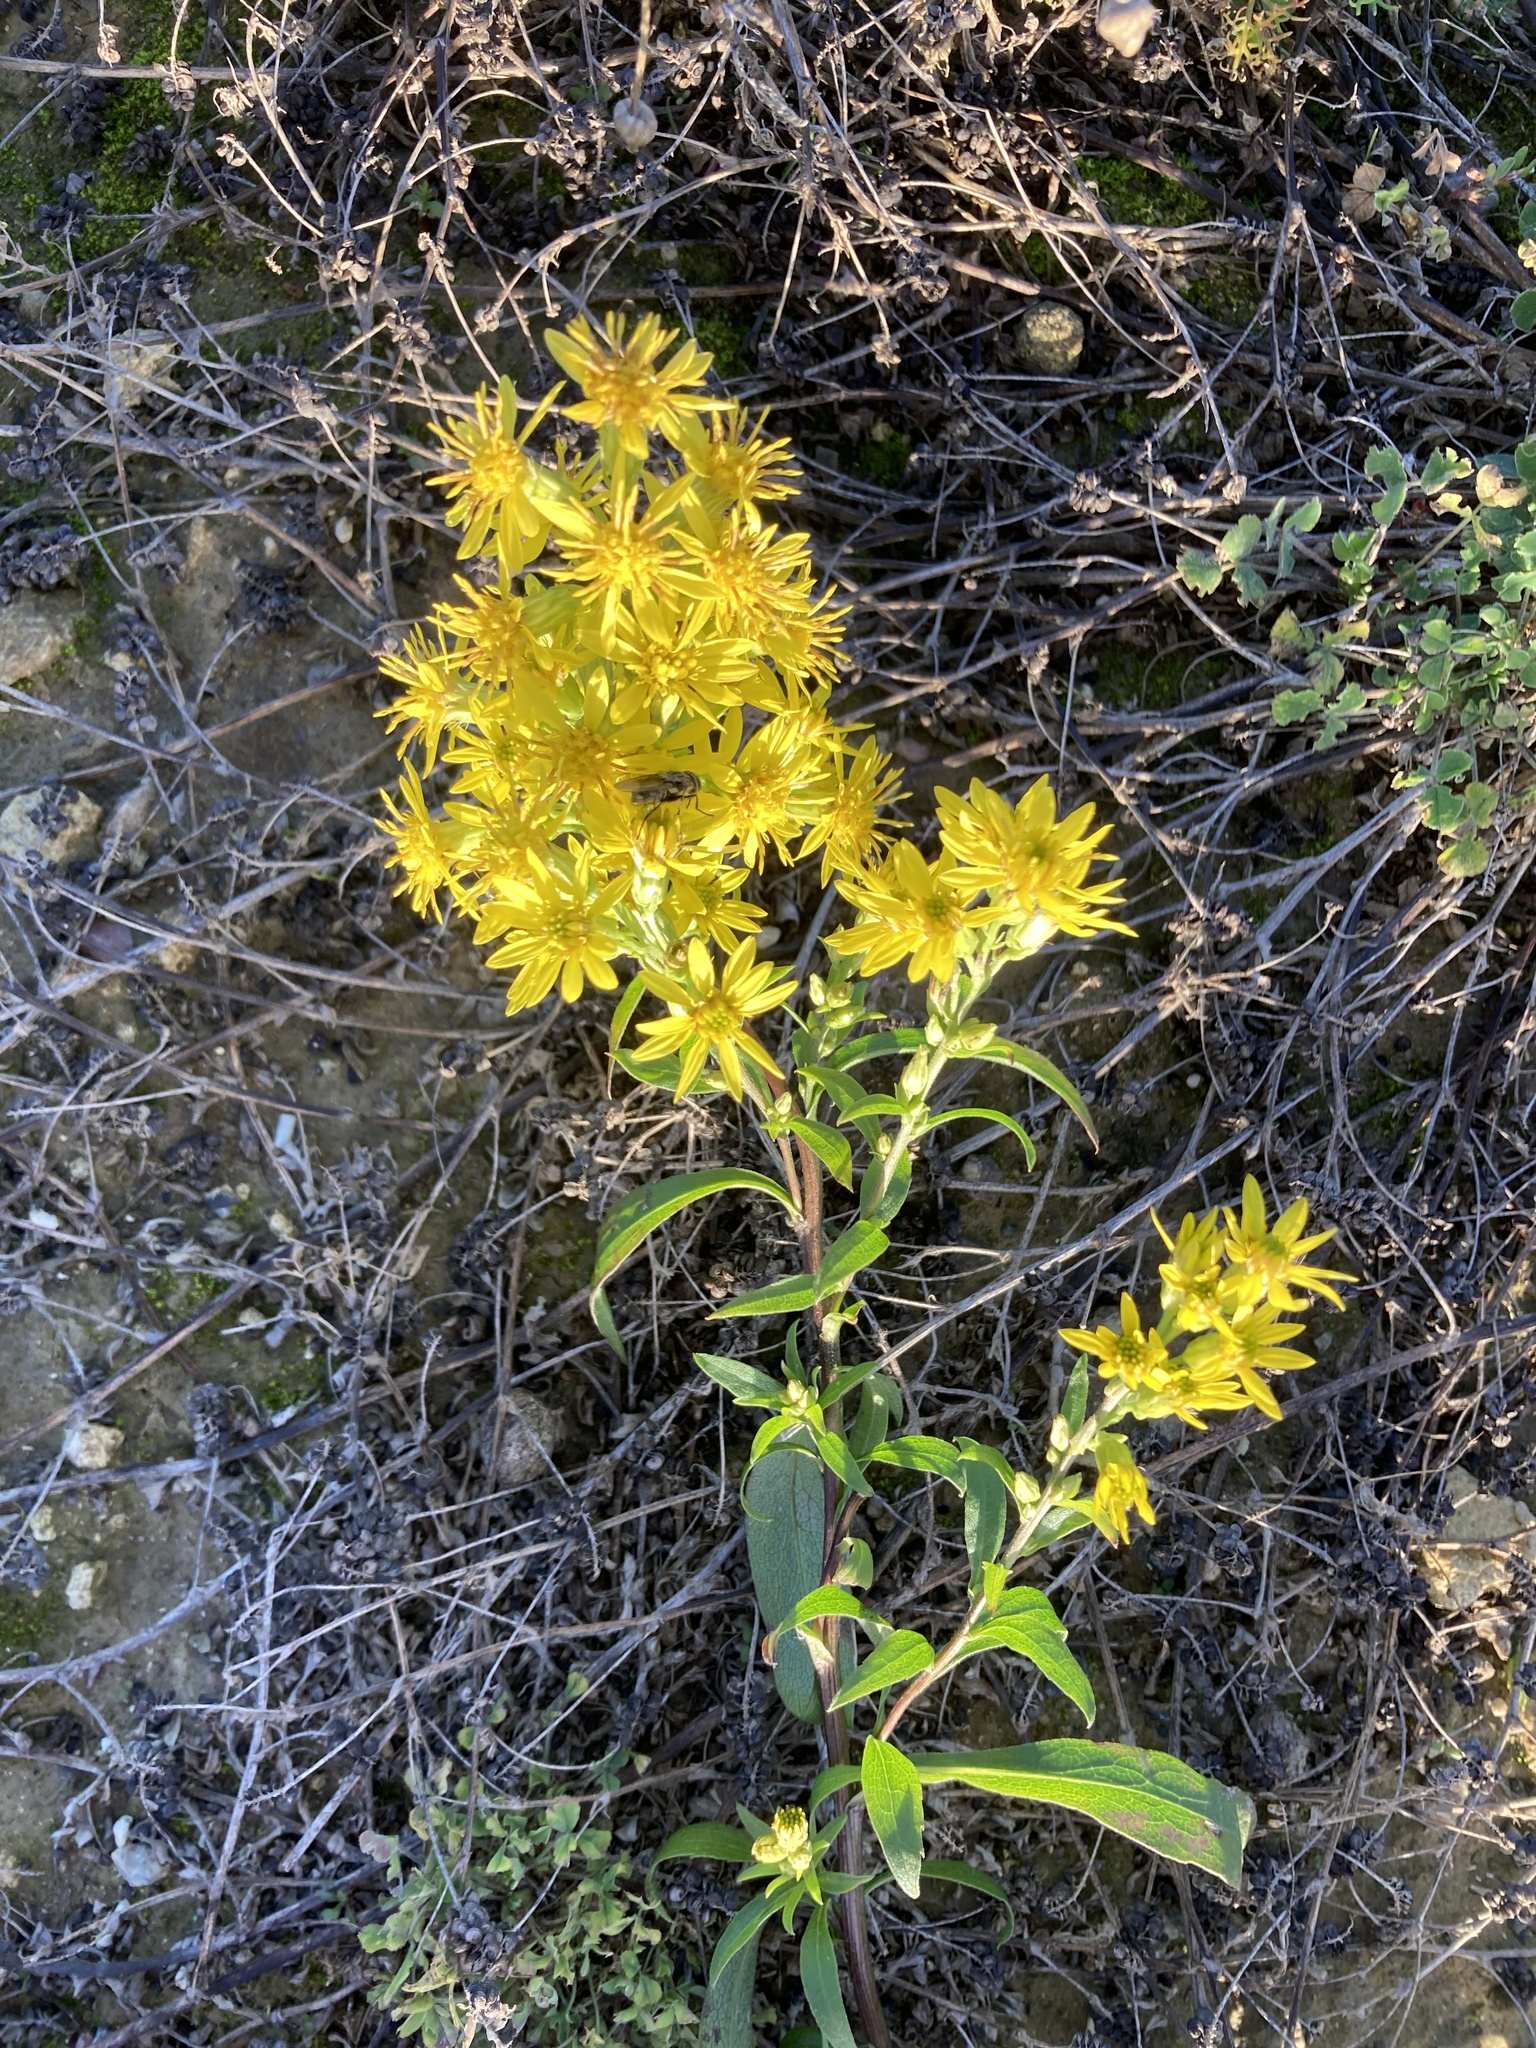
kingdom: Plantae
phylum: Tracheophyta
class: Magnoliopsida
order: Asterales
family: Asteraceae
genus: Solidago
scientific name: Solidago virgaurea
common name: Goldenrod
